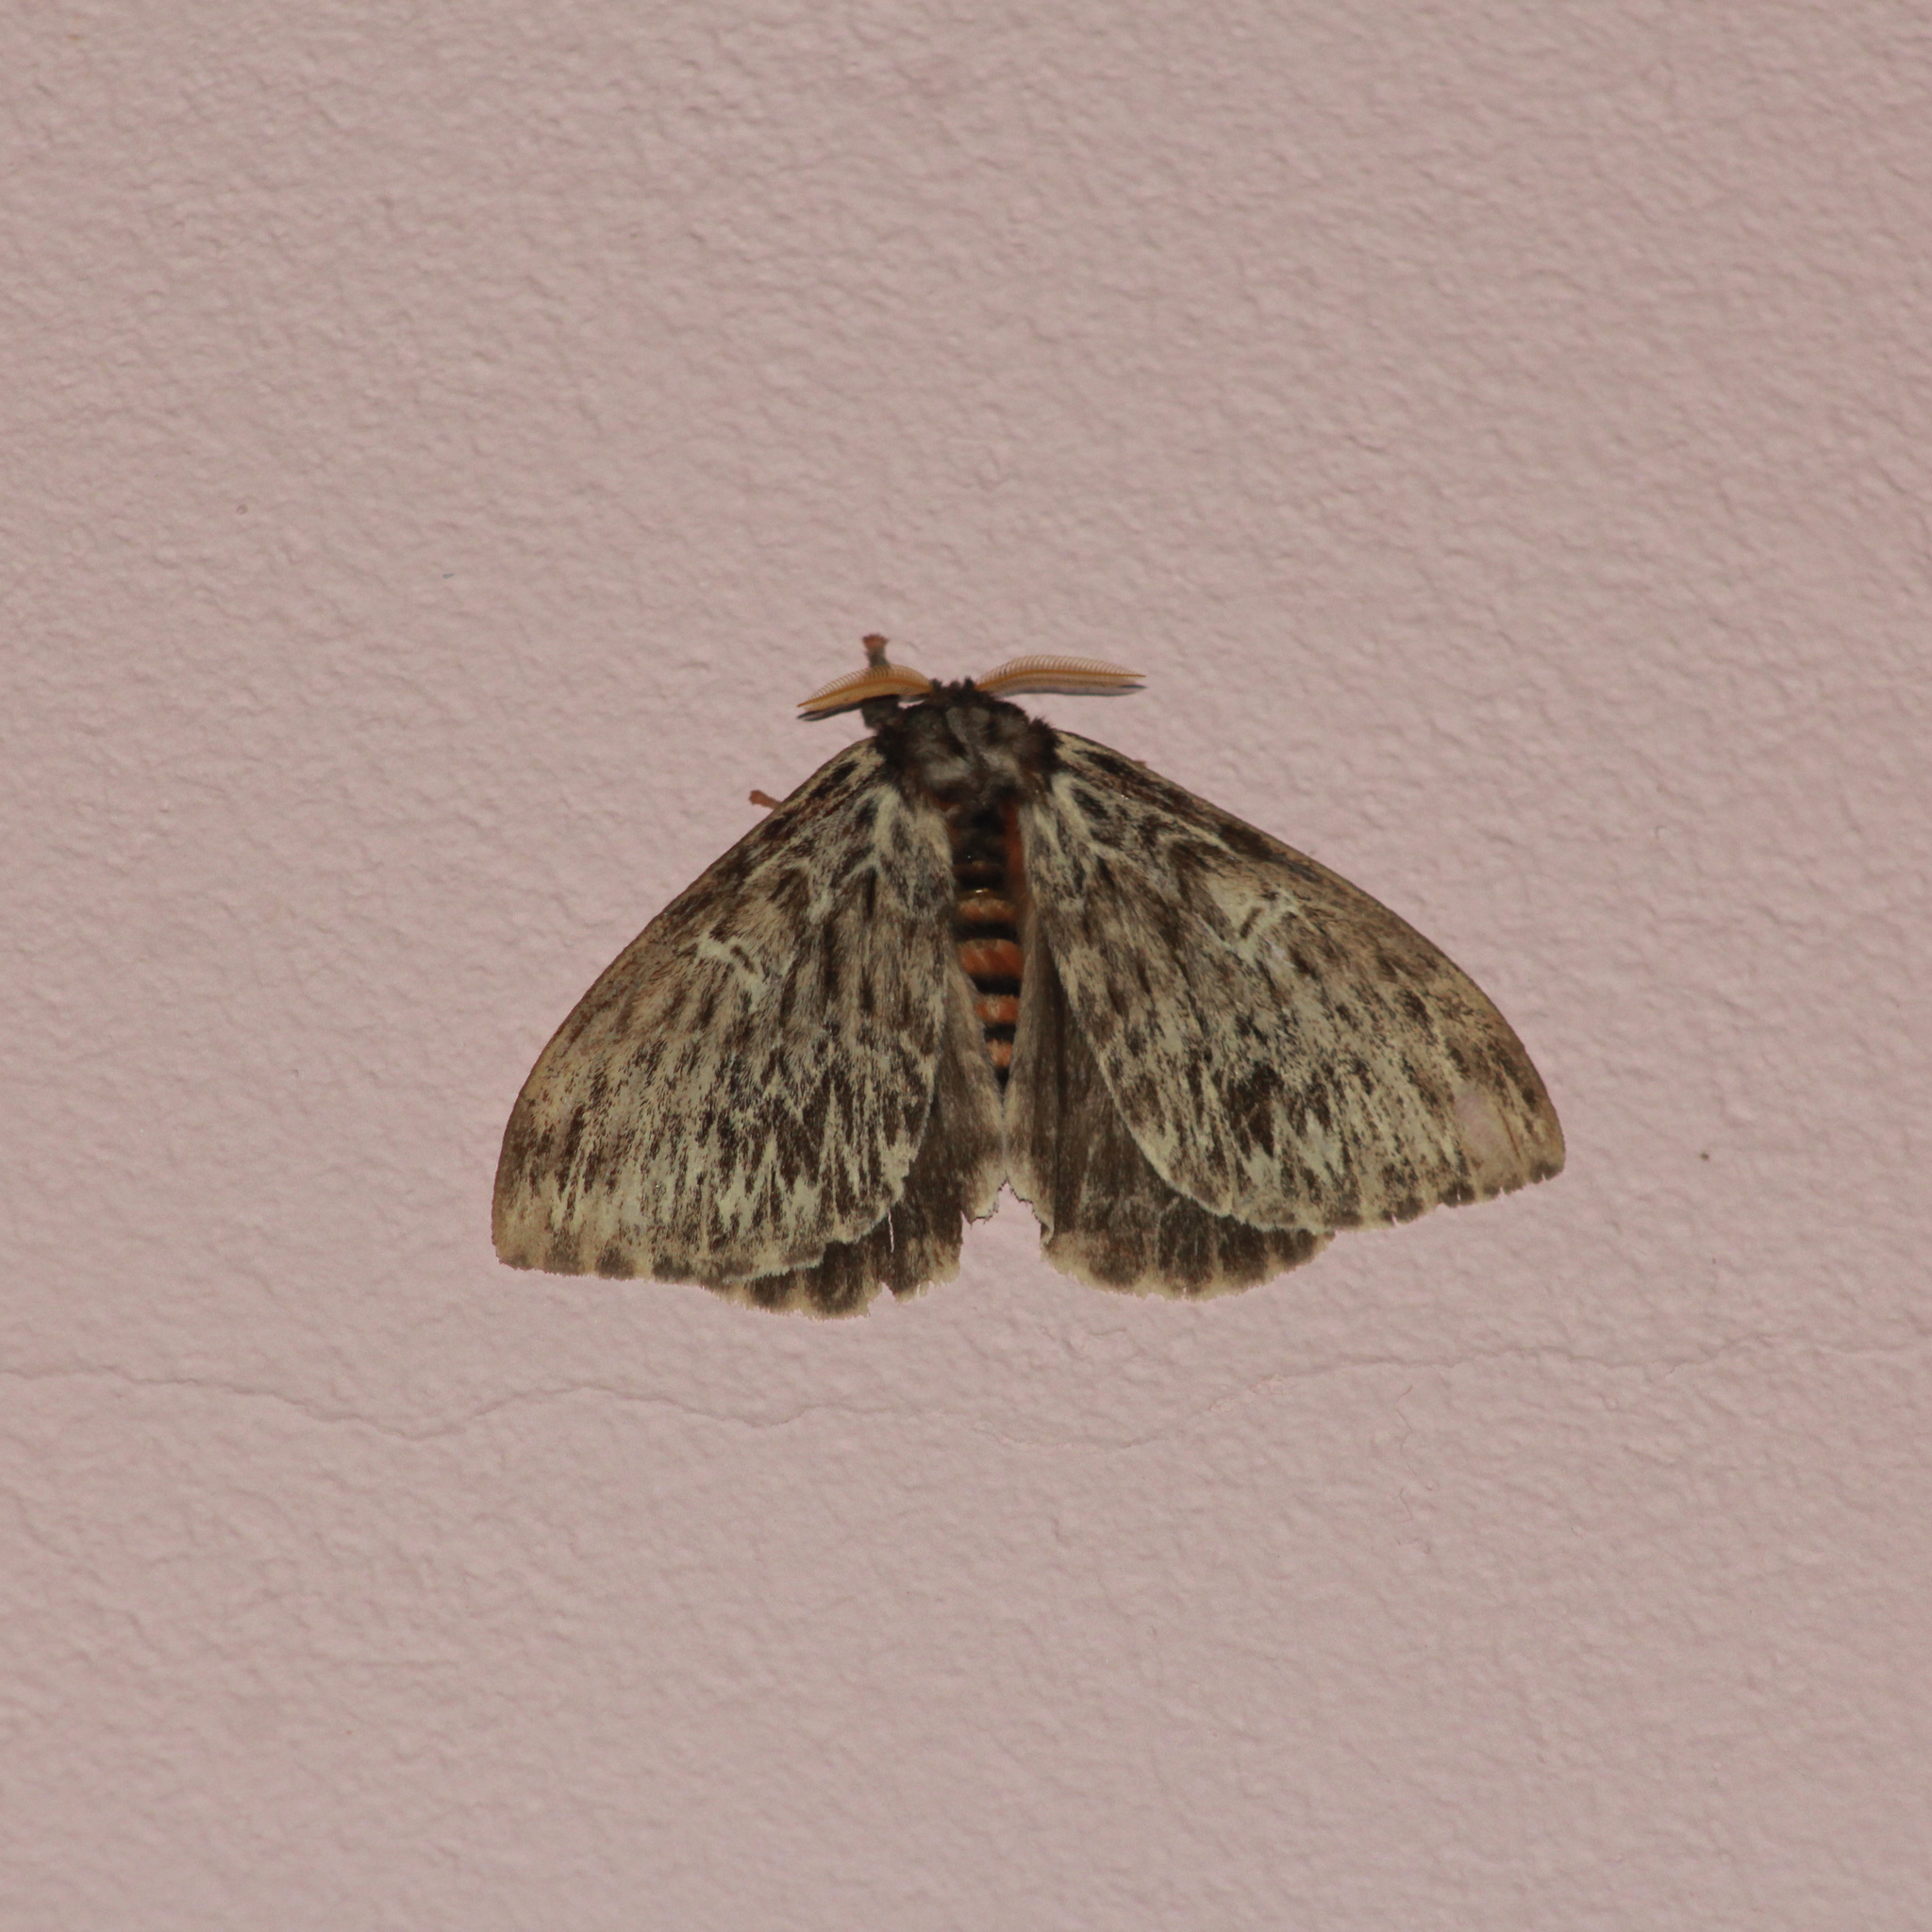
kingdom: Animalia
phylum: Arthropoda
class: Insecta
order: Lepidoptera
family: Saturniidae
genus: Dirphia
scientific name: Dirphia radiata
